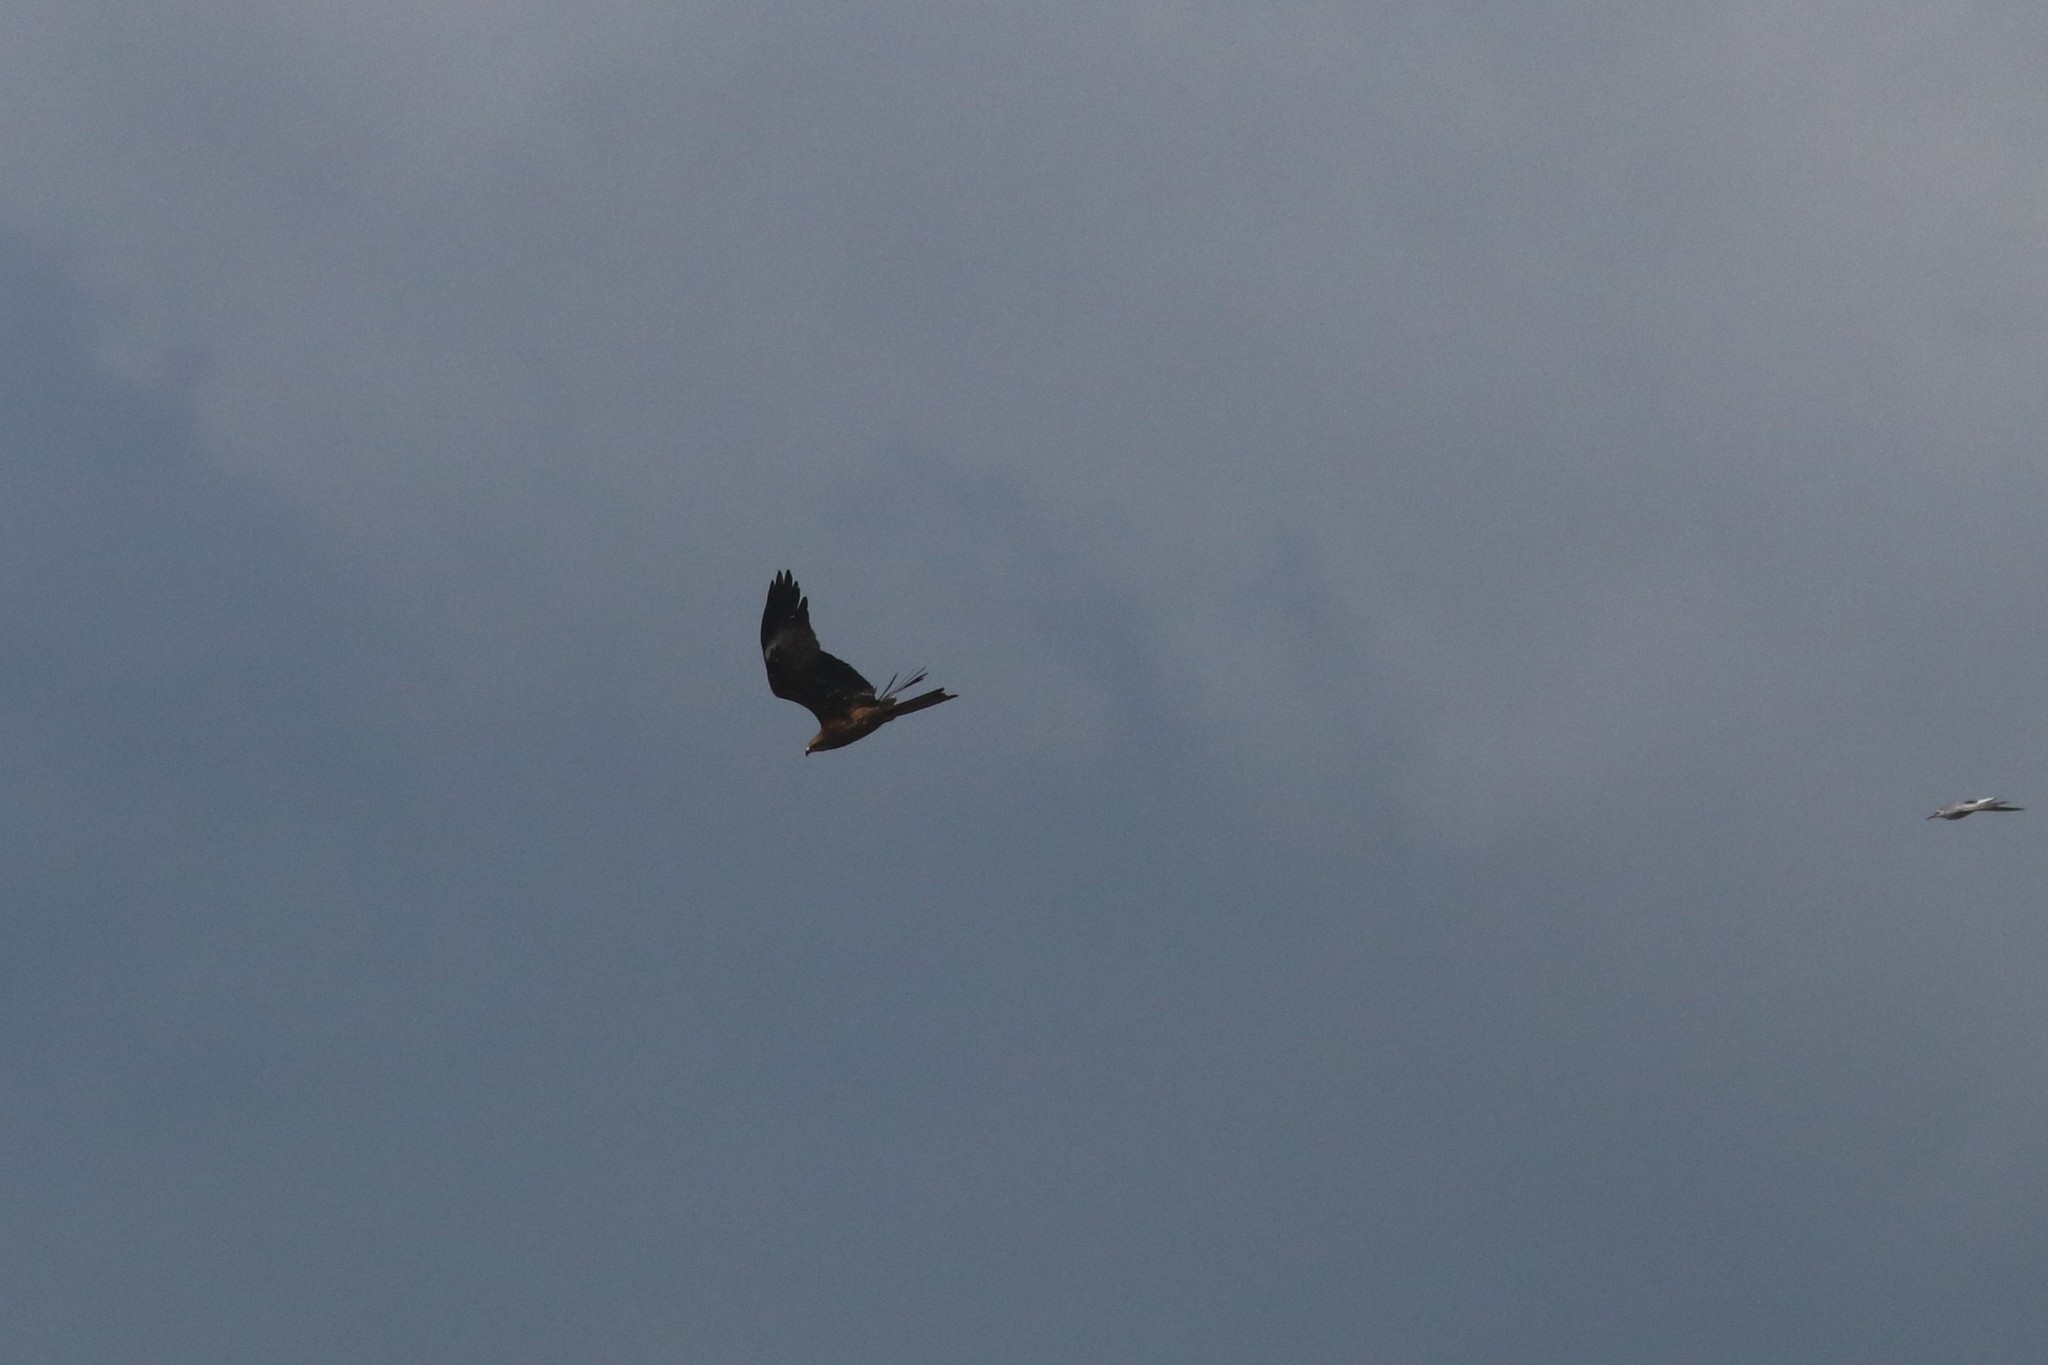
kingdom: Animalia
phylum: Chordata
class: Aves
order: Accipitriformes
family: Accipitridae
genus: Milvus
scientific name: Milvus migrans
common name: Black kite
